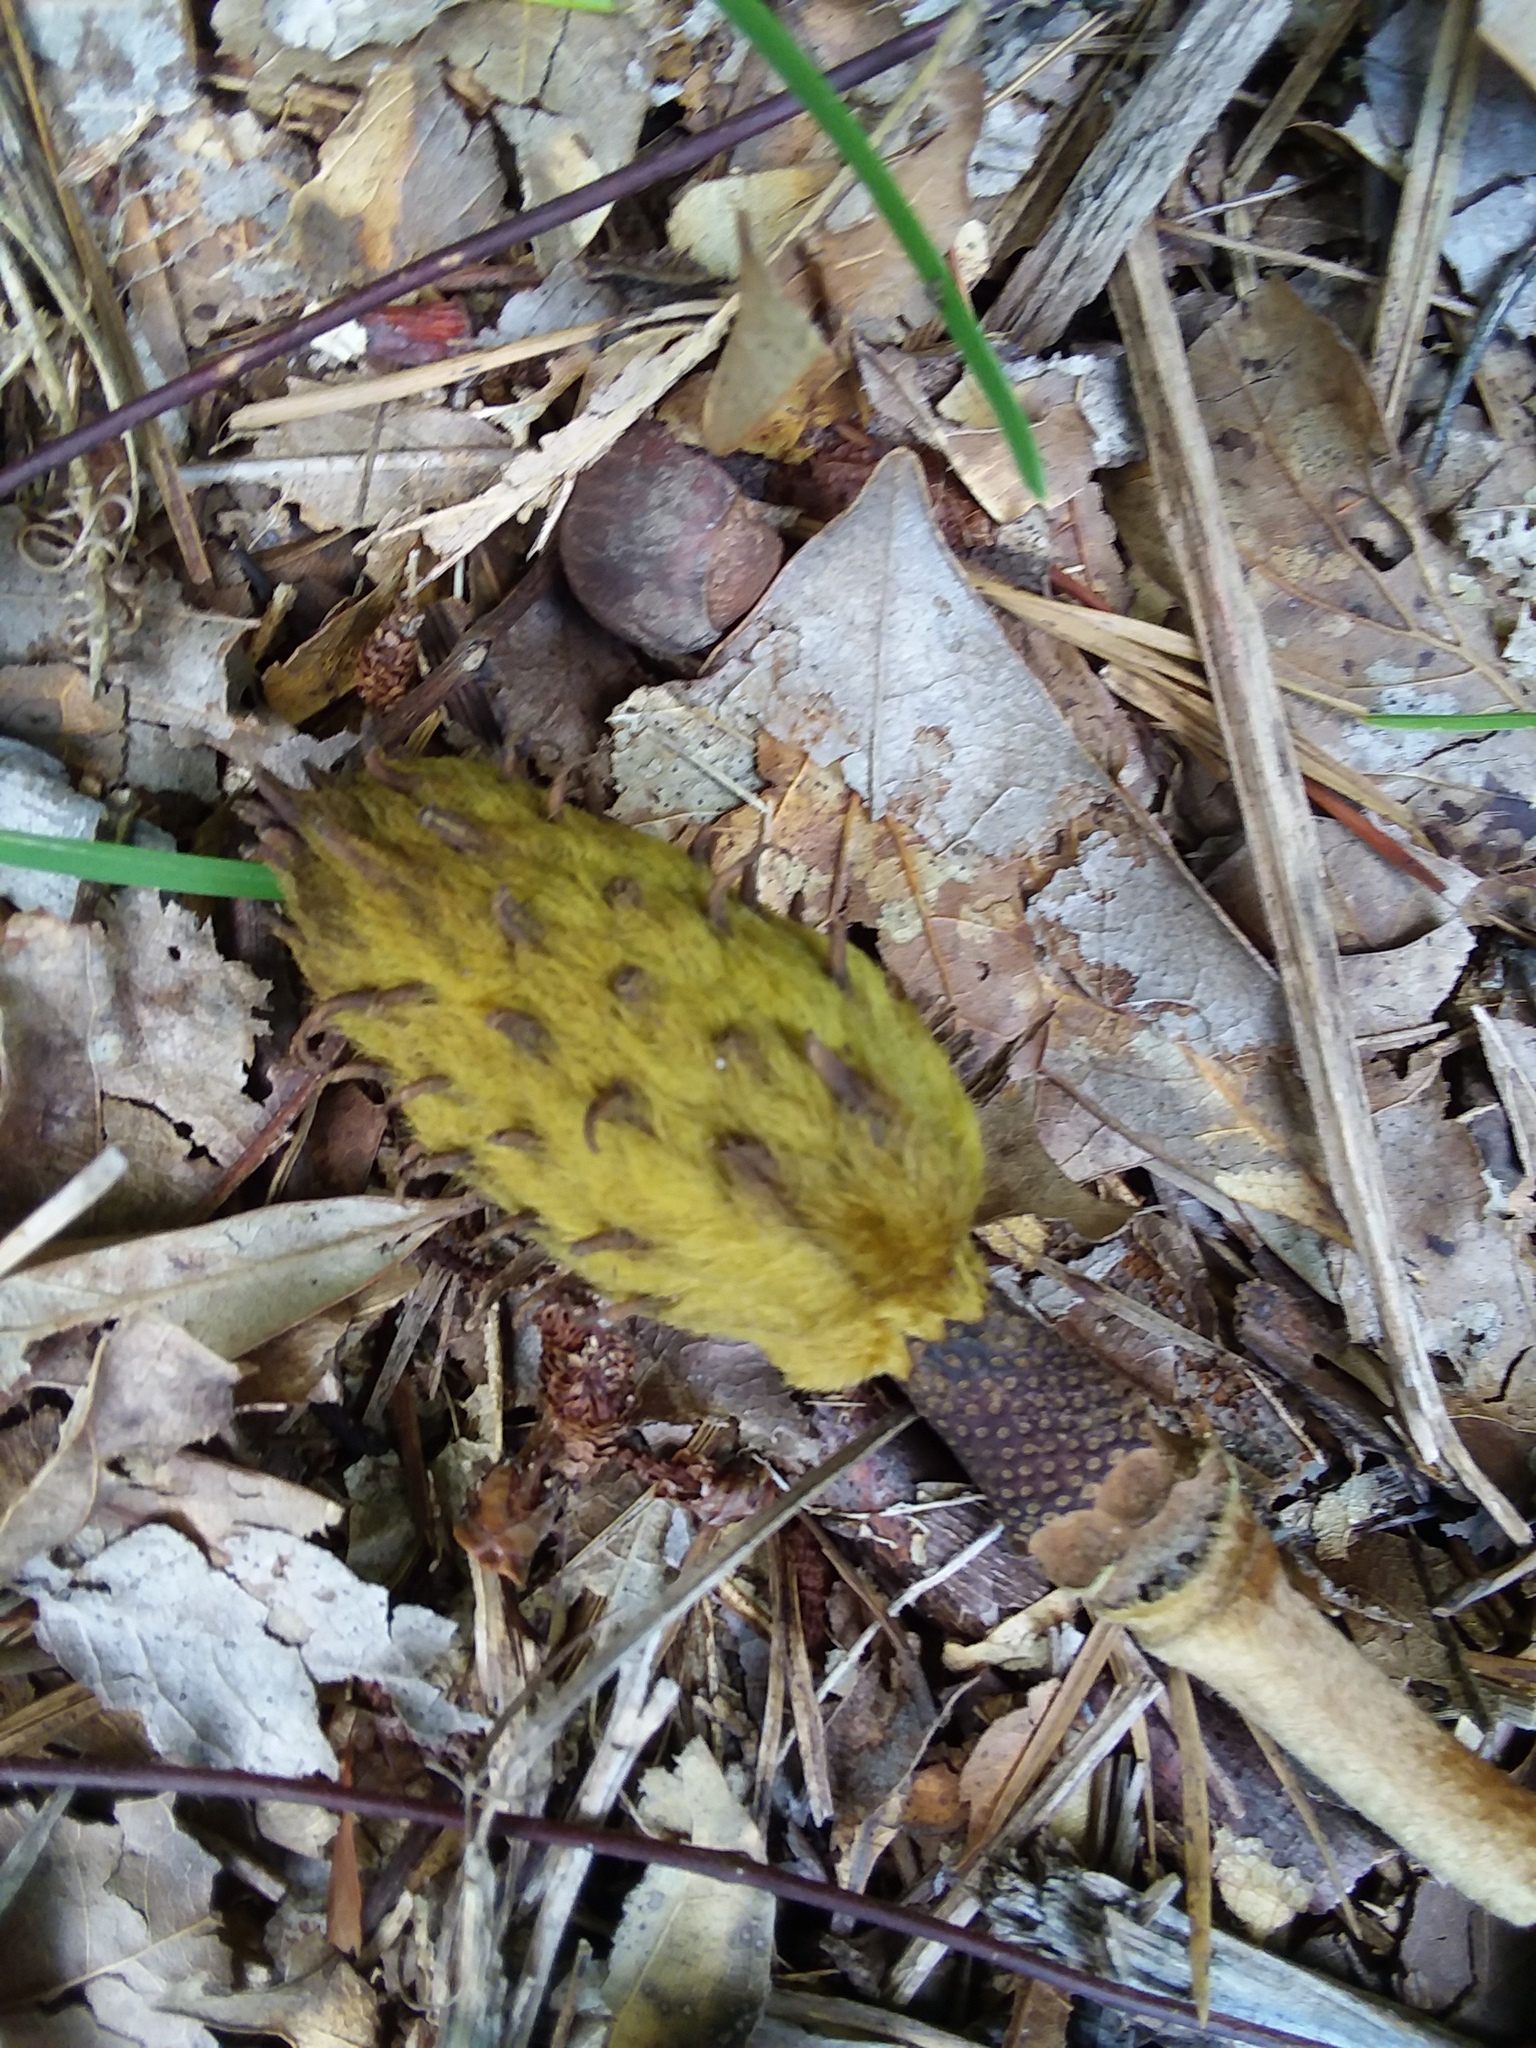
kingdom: Plantae
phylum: Tracheophyta
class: Magnoliopsida
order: Magnoliales
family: Magnoliaceae
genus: Magnolia
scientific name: Magnolia grandiflora
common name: Southern magnolia
